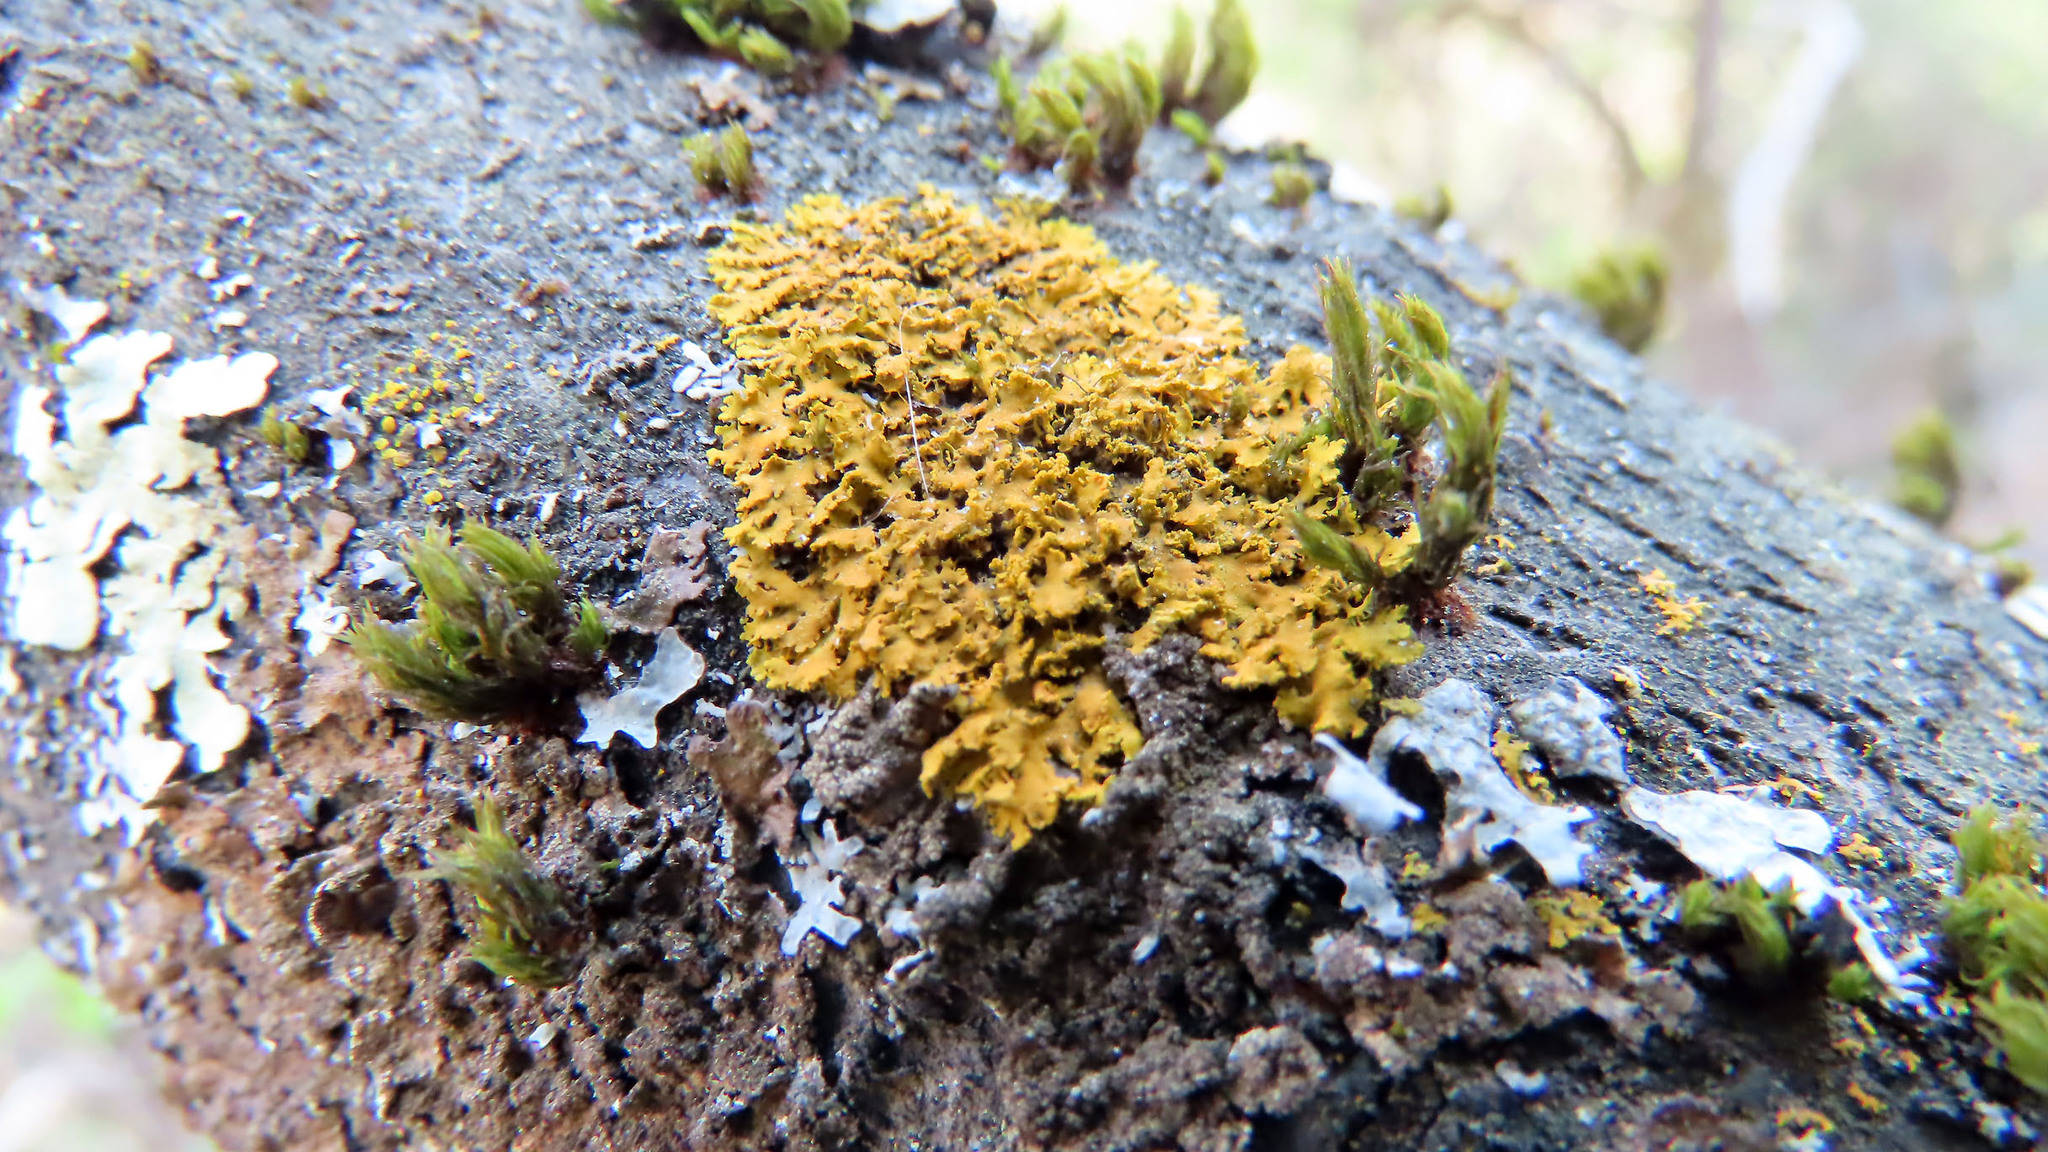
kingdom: Fungi
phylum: Ascomycota
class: Lecanoromycetes
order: Teloschistales
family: Teloschistaceae
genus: Xanthoria
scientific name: Xanthoria parietina
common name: Common orange lichen
